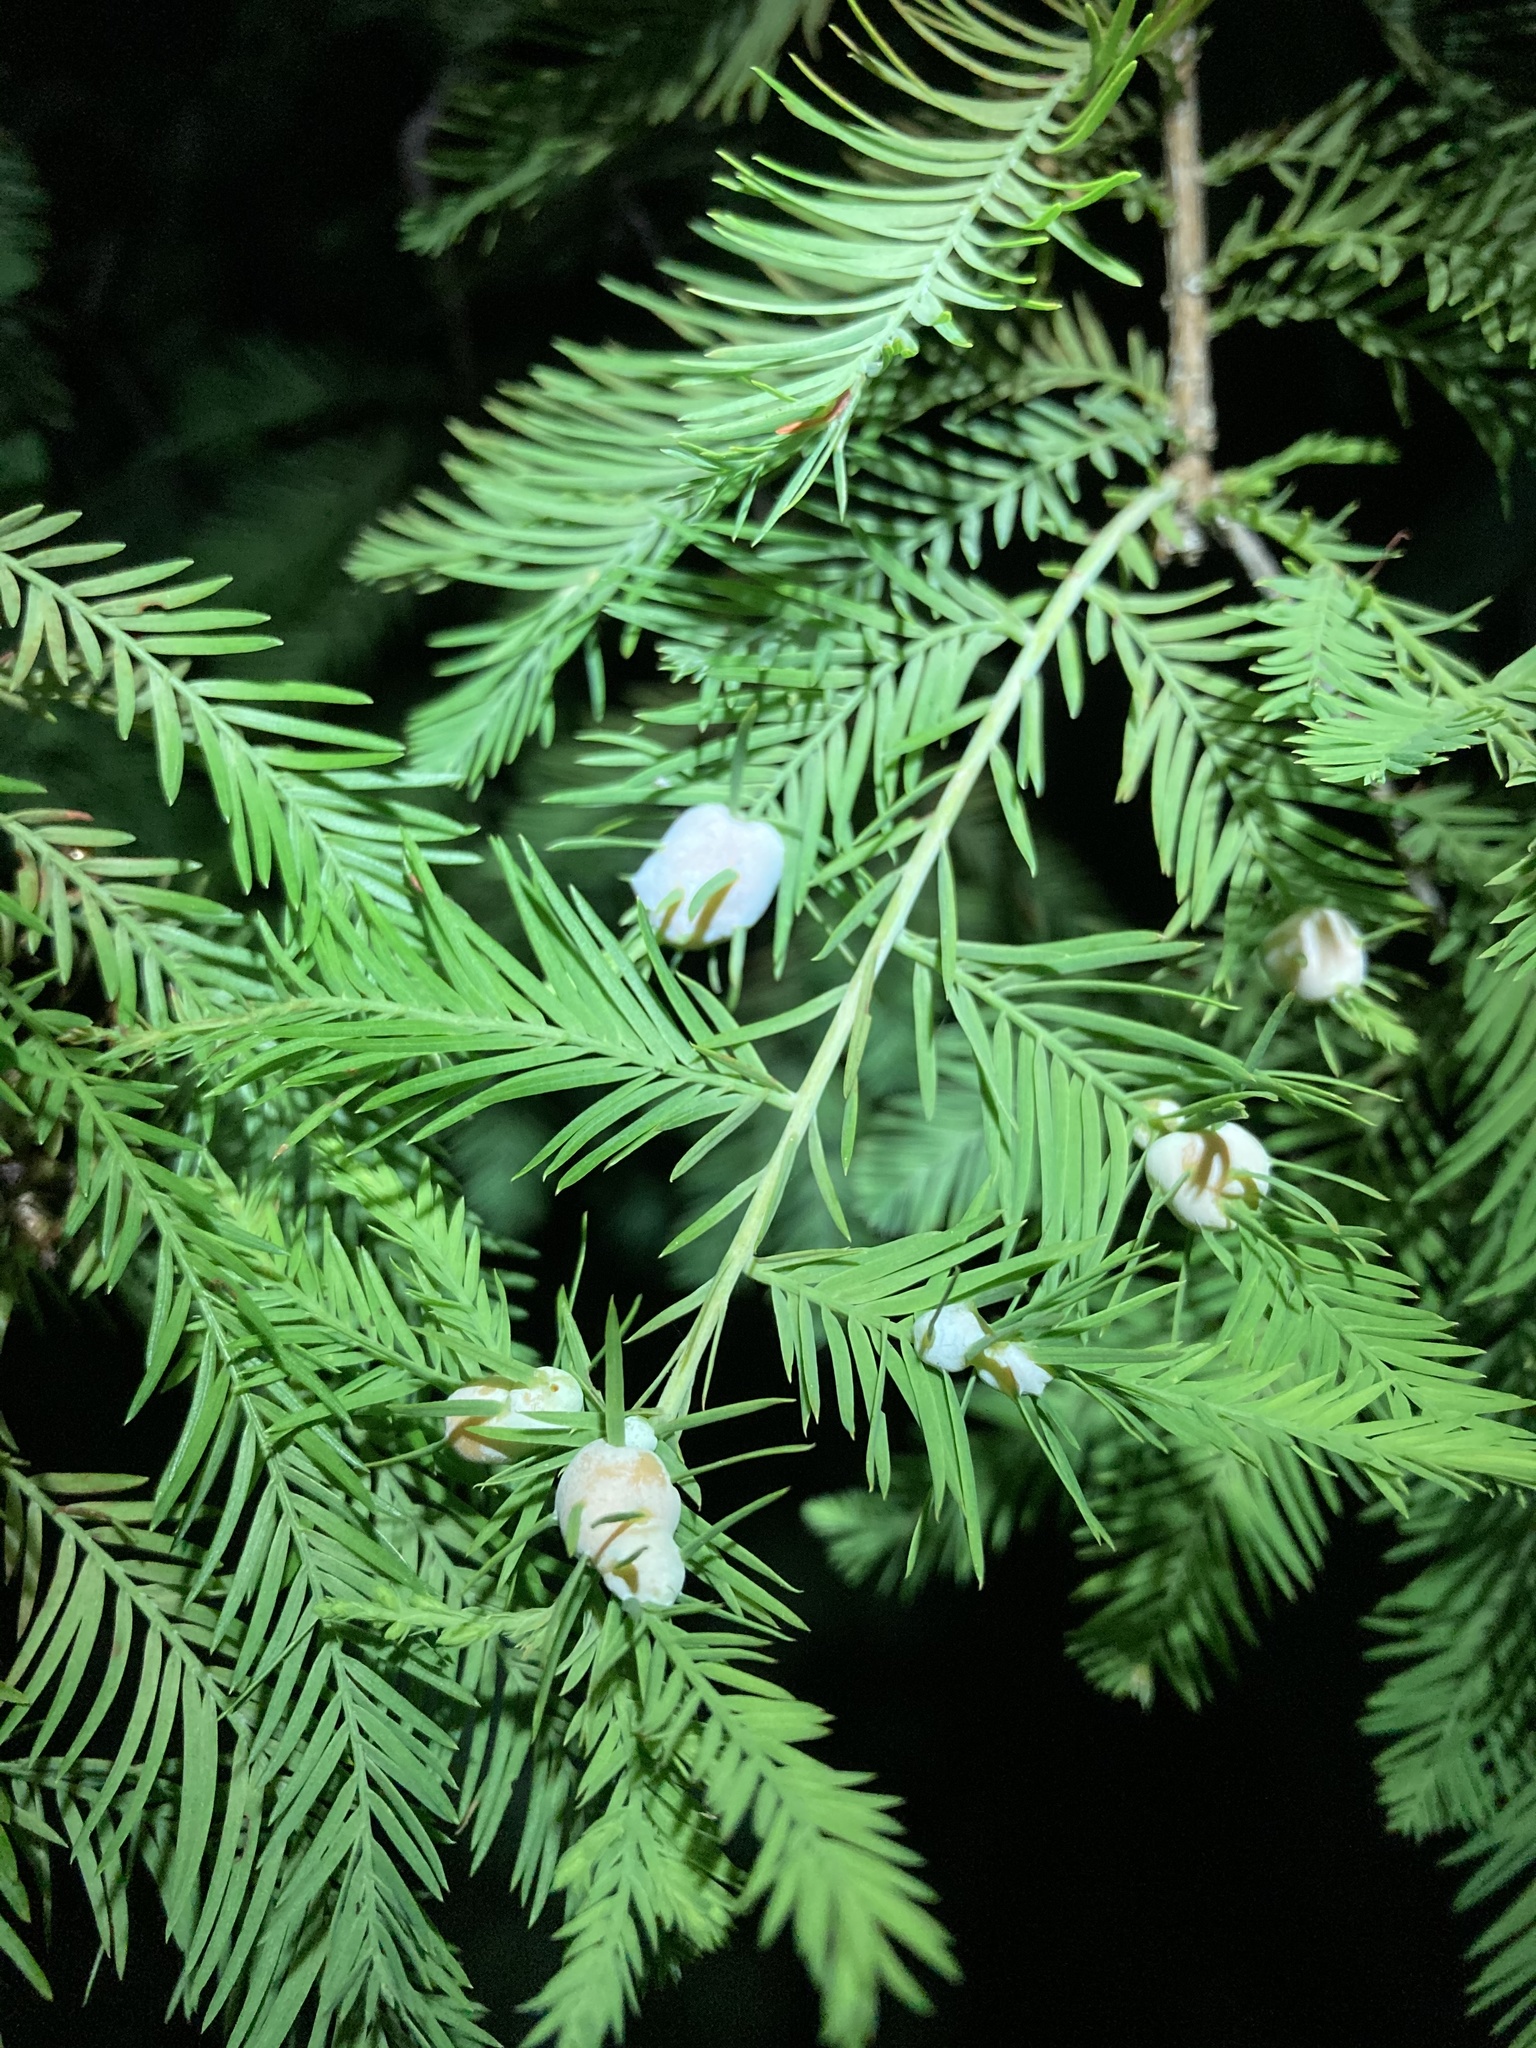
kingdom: Animalia
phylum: Arthropoda
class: Insecta
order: Diptera
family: Cecidomyiidae
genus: Taxodiomyia
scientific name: Taxodiomyia cupressiananassa
